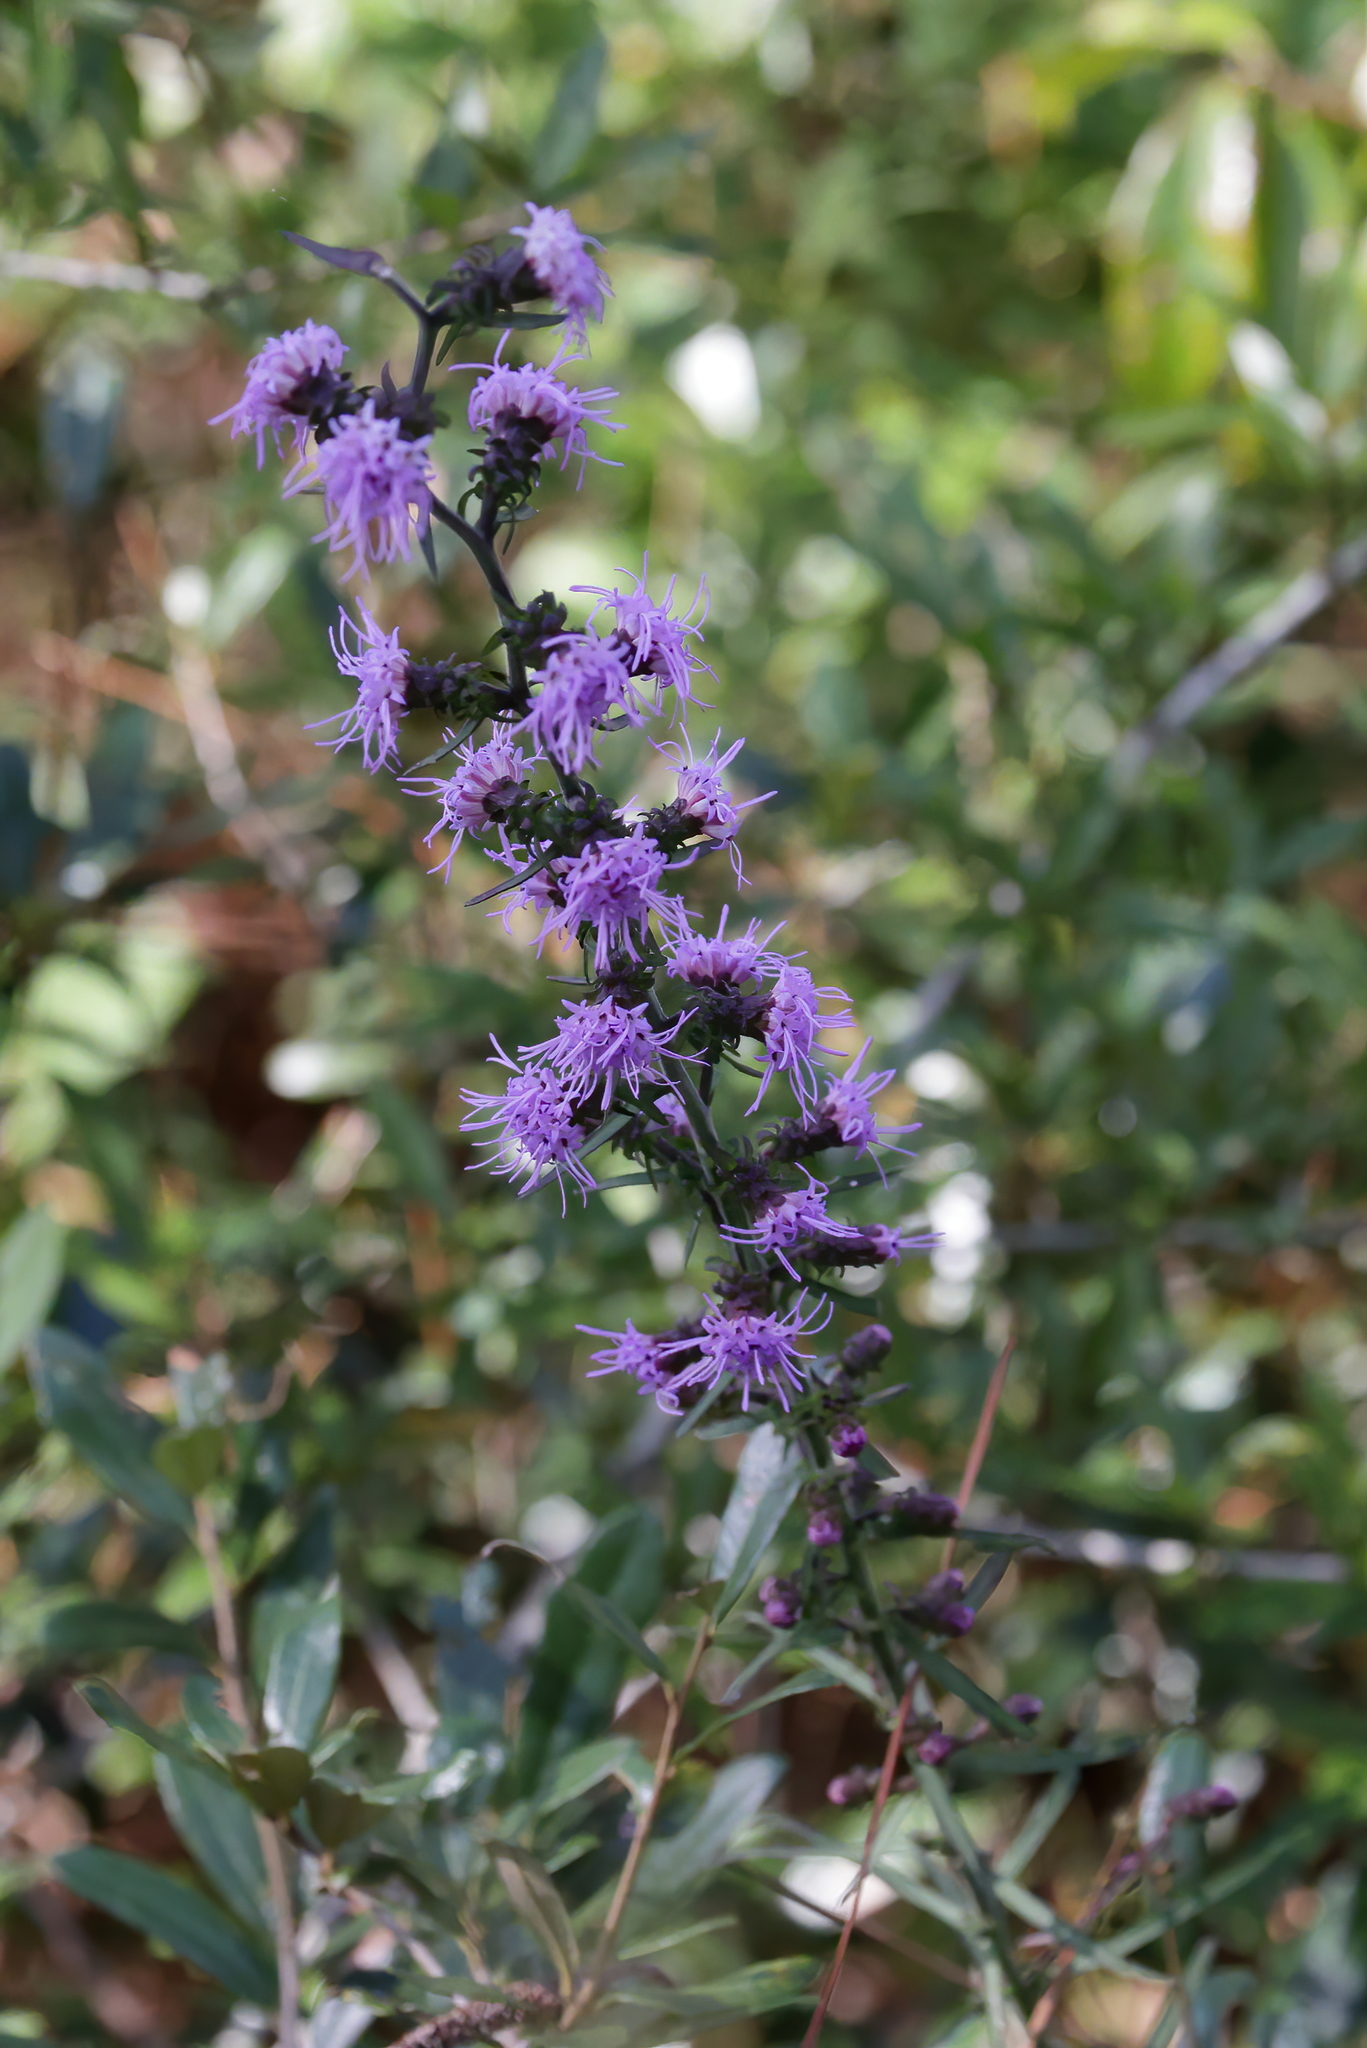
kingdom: Plantae
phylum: Tracheophyta
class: Magnoliopsida
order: Asterales
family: Asteraceae
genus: Liatris
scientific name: Liatris squarrulosa
